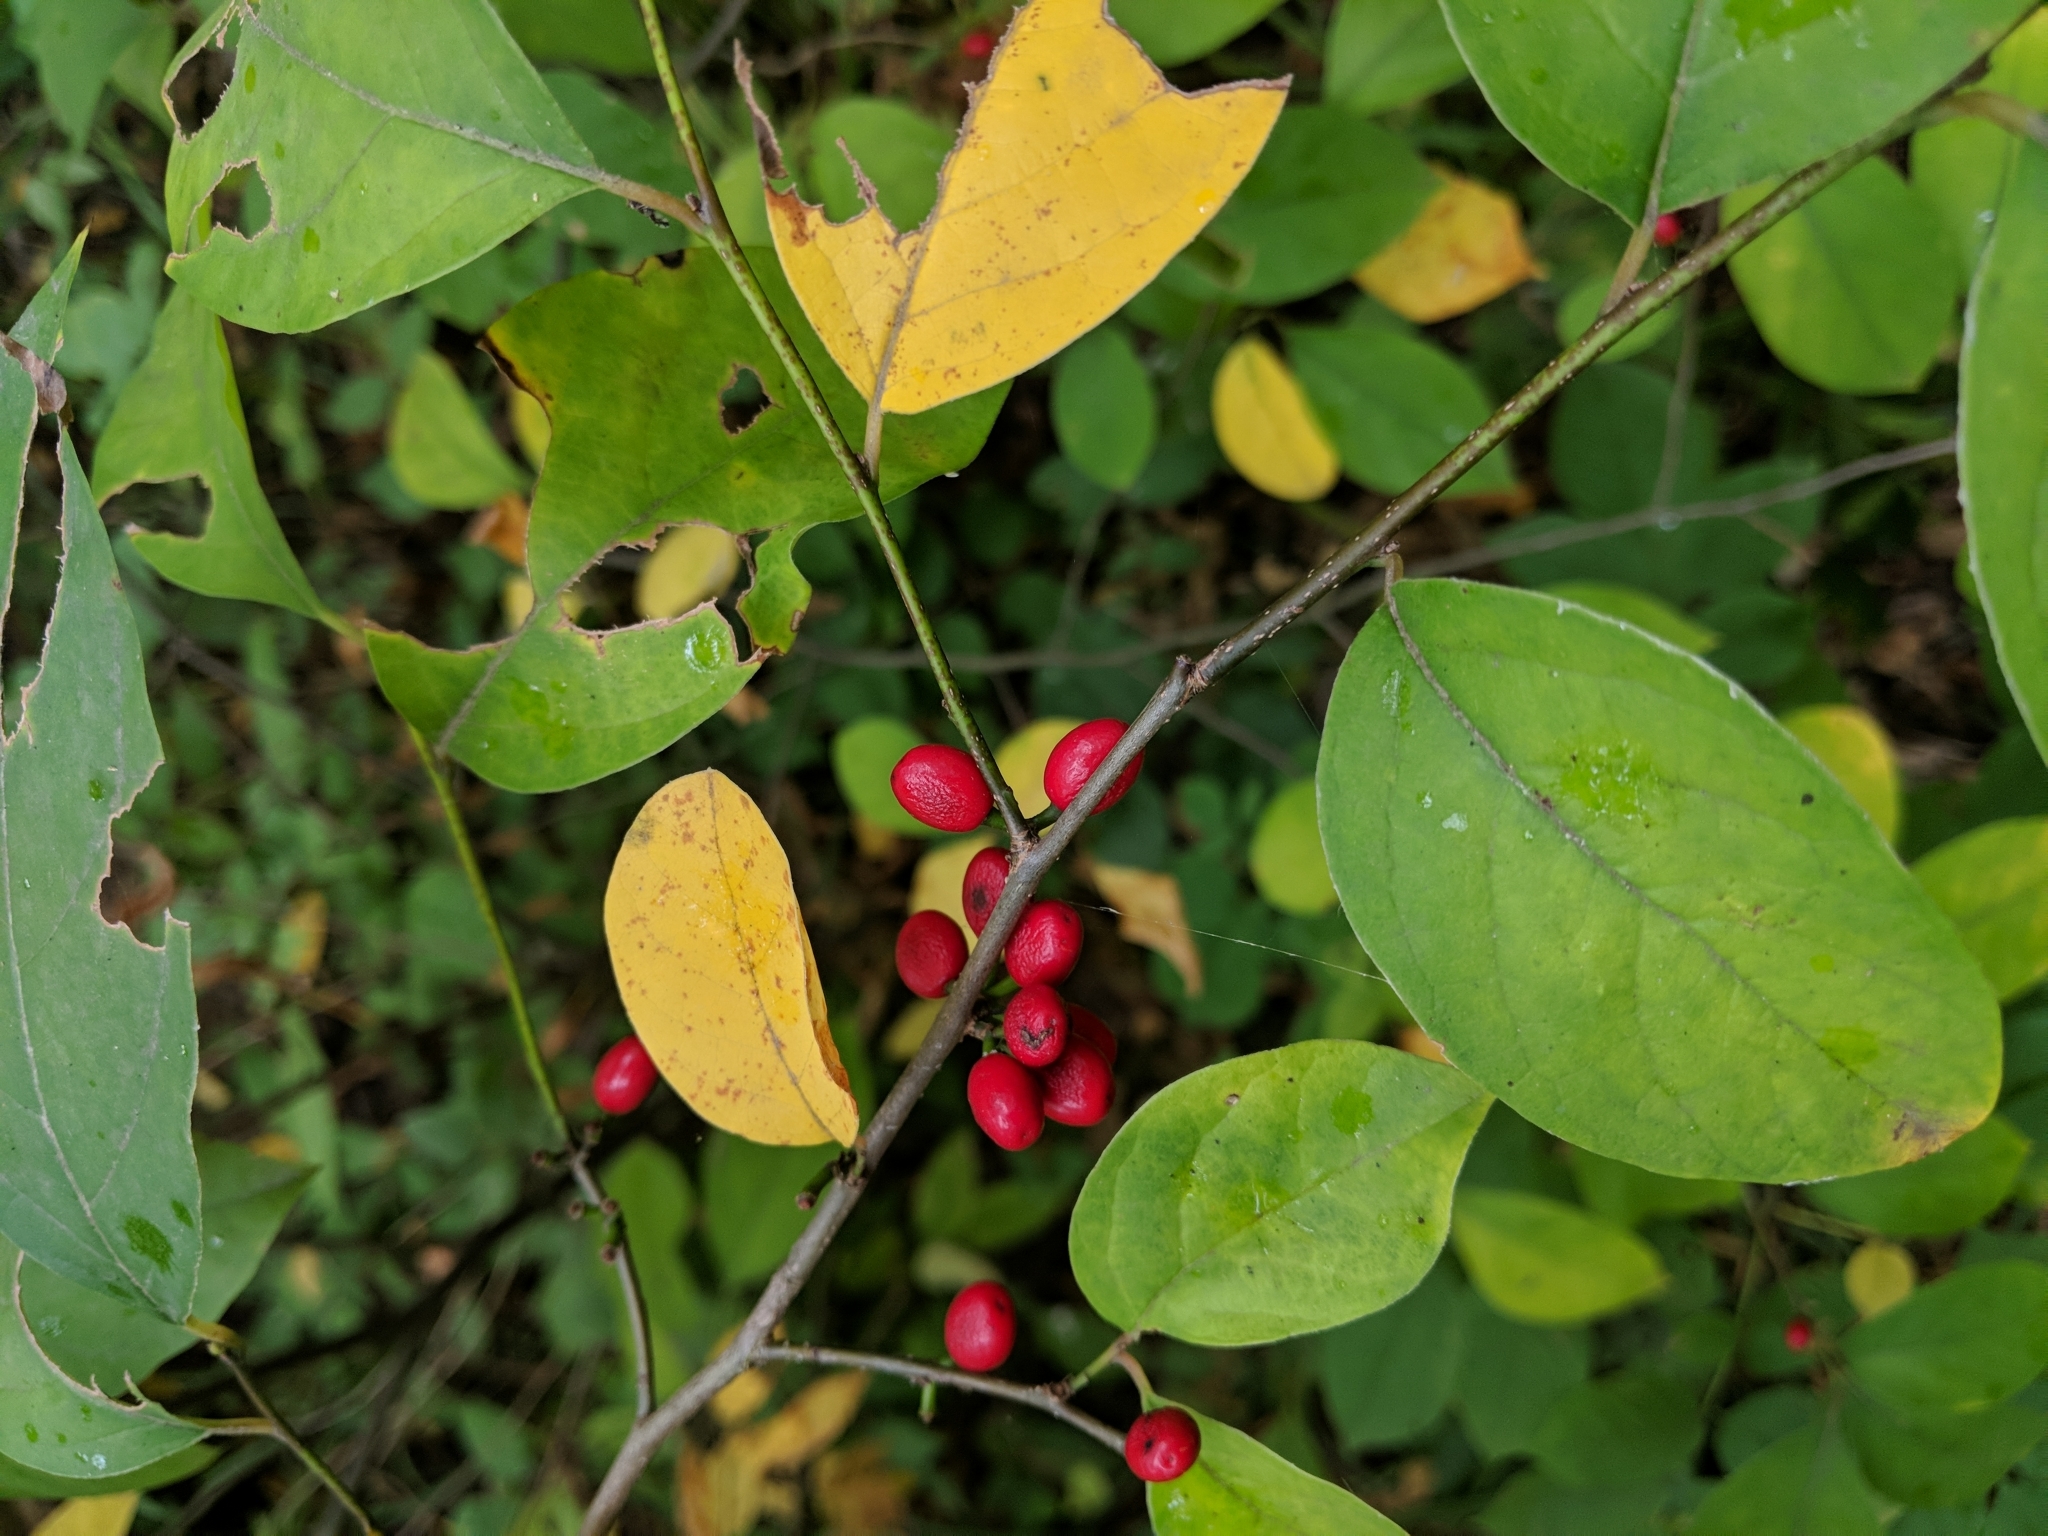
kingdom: Plantae
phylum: Tracheophyta
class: Magnoliopsida
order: Laurales
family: Lauraceae
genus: Lindera
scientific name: Lindera benzoin
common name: Spicebush
